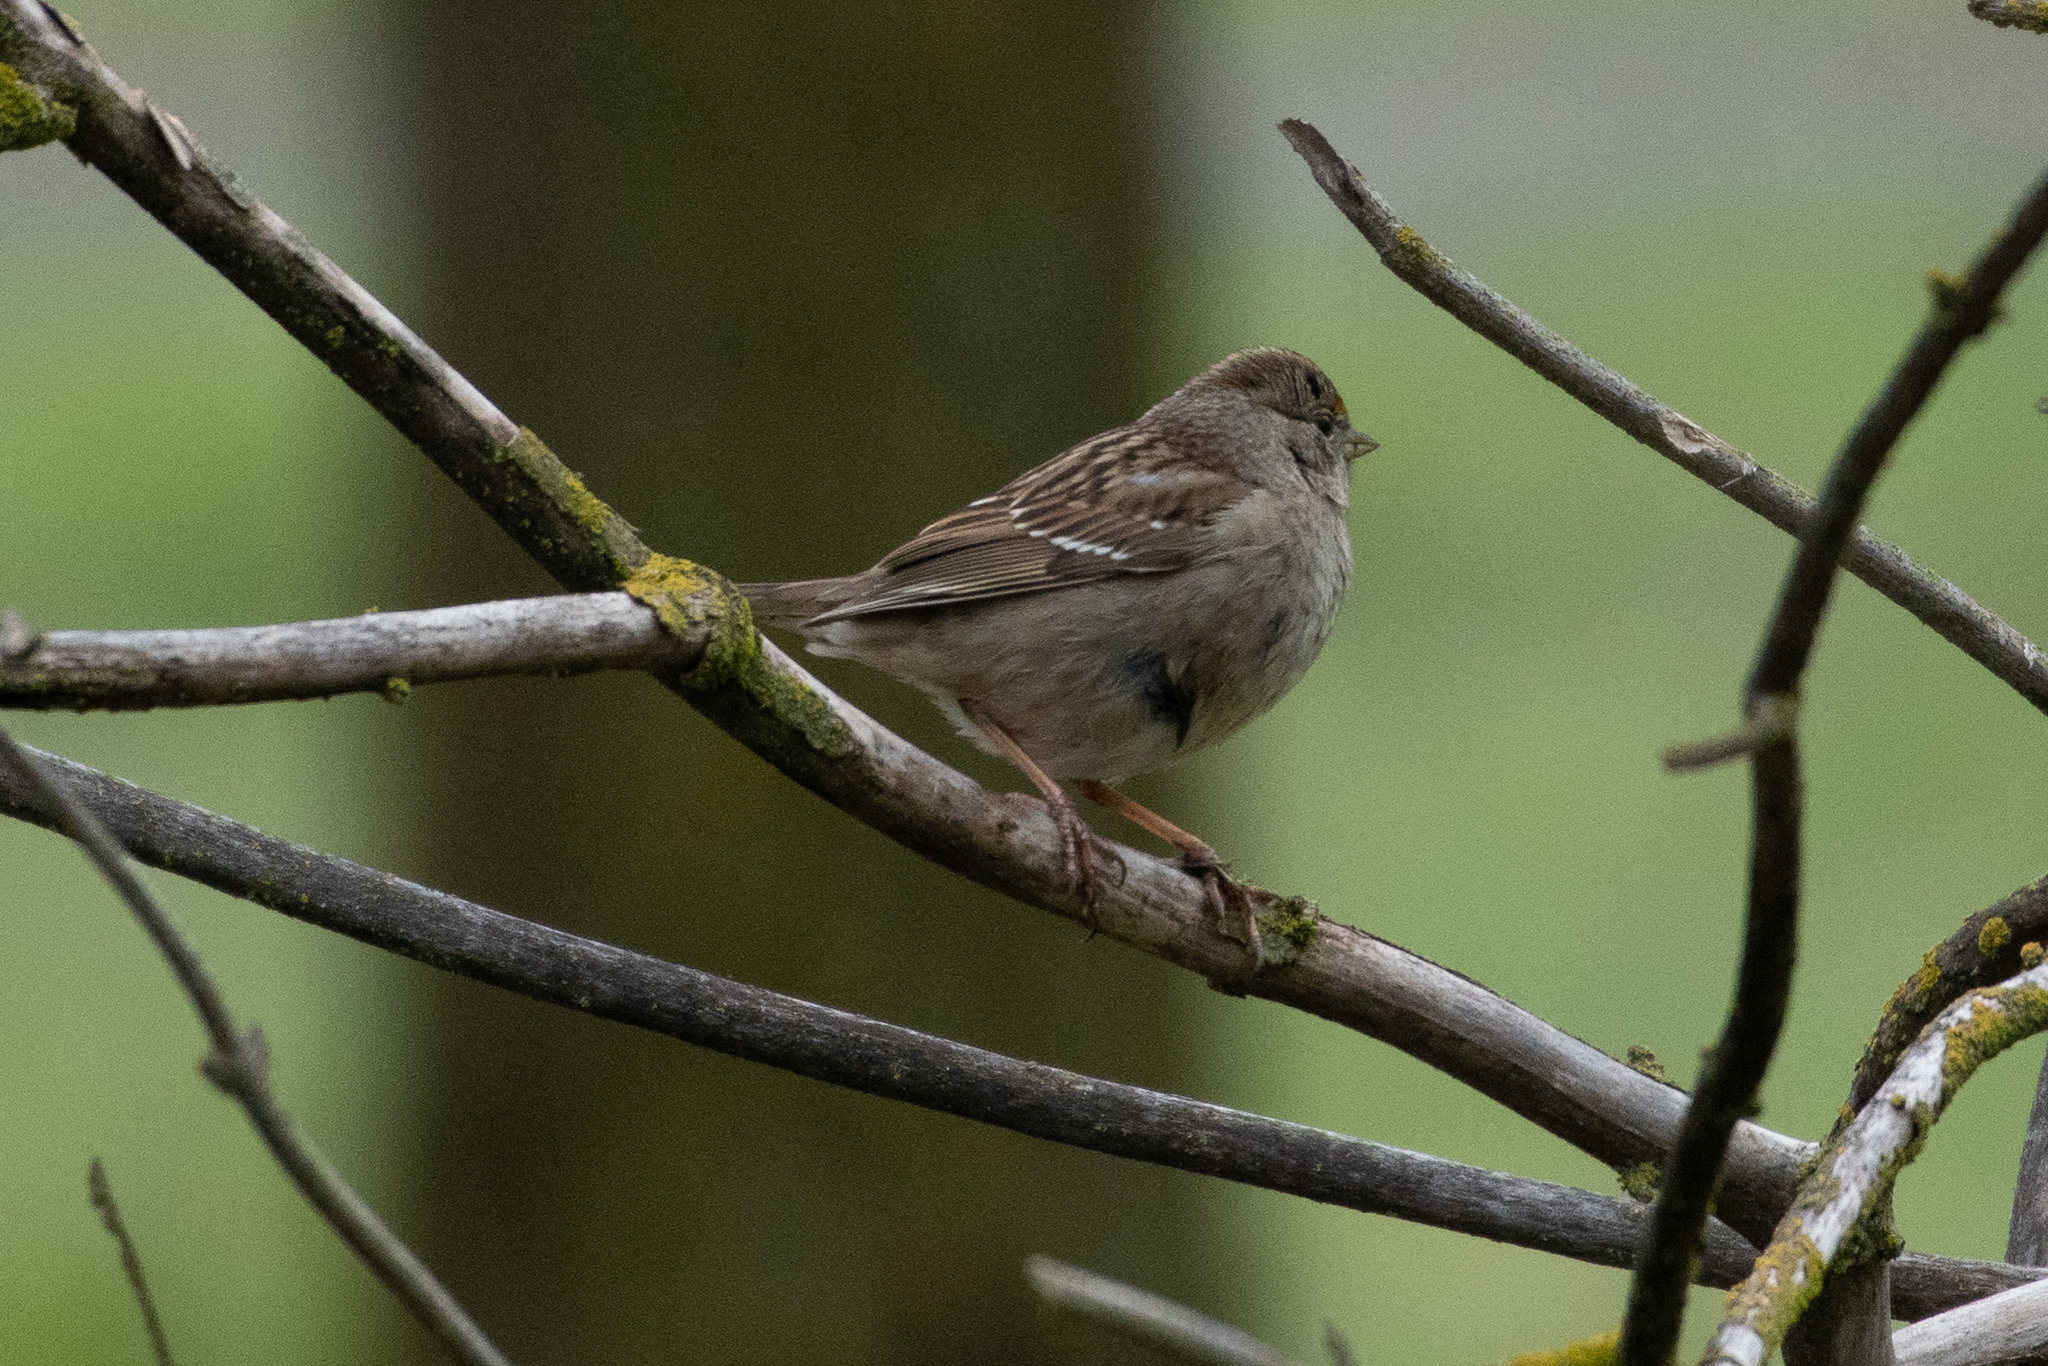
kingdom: Animalia
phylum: Chordata
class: Aves
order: Passeriformes
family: Passerellidae
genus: Zonotrichia
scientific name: Zonotrichia atricapilla
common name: Golden-crowned sparrow
